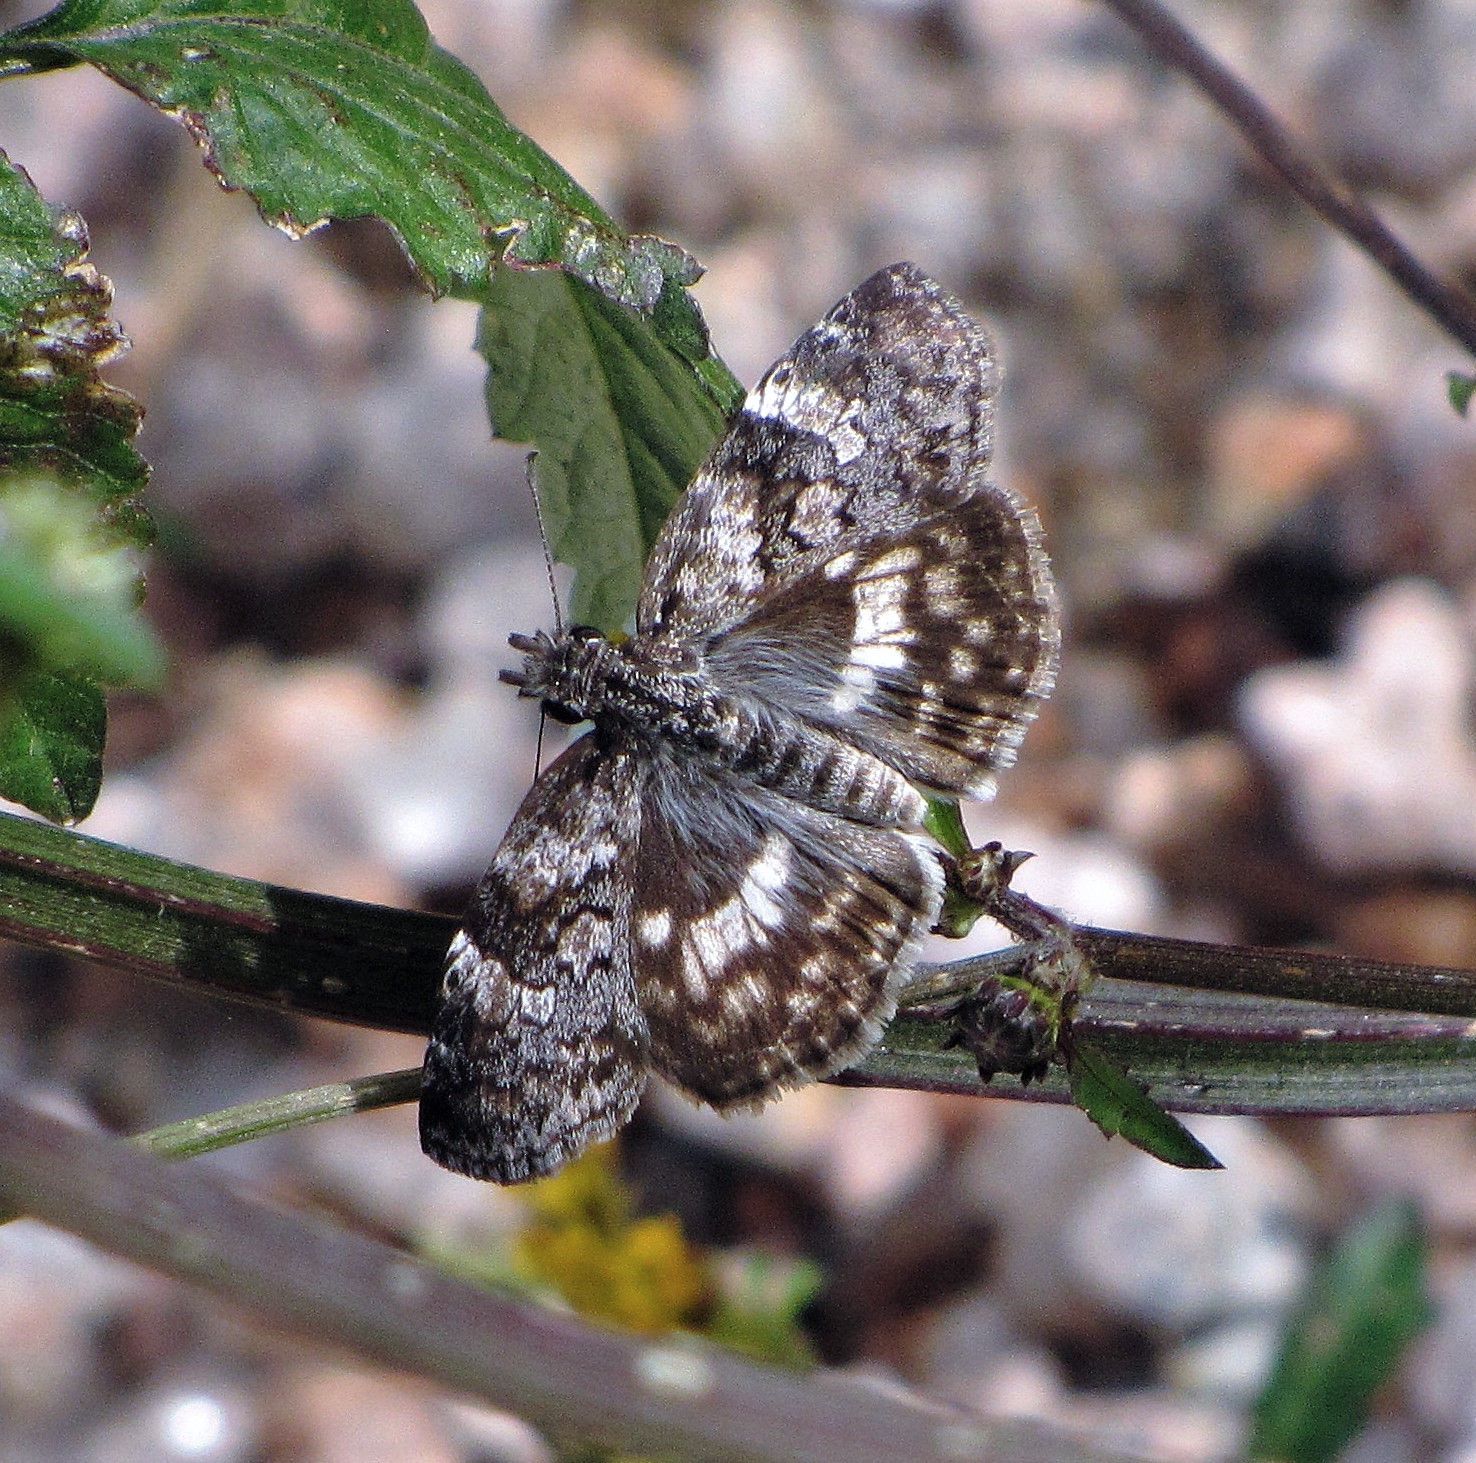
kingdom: Animalia
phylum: Arthropoda
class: Insecta
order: Lepidoptera
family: Hesperiidae
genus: Chiomara
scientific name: Chiomara asychis
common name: White-patterned skipper
